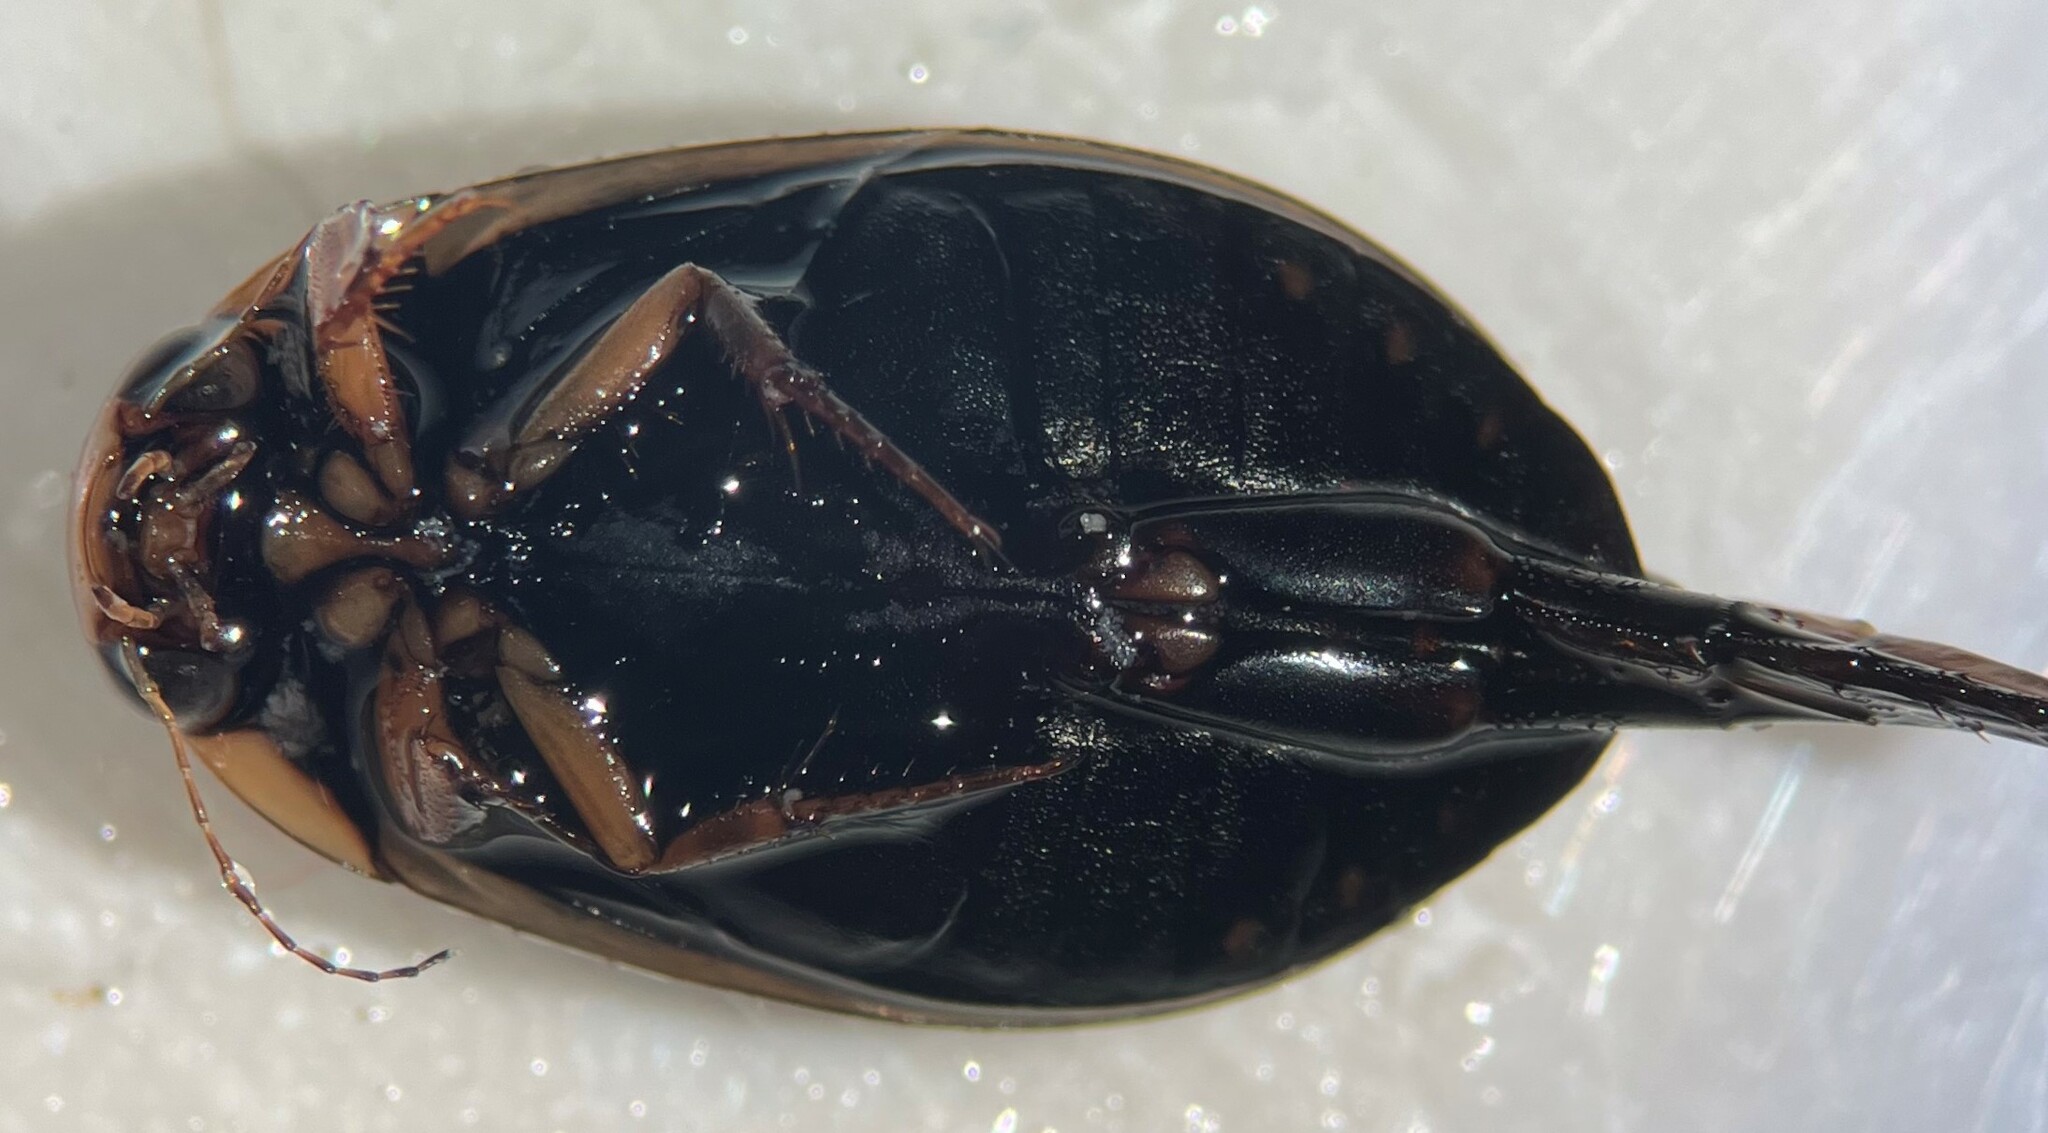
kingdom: Animalia
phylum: Arthropoda
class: Insecta
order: Coleoptera
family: Dytiscidae
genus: Acilius
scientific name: Acilius mediatus
